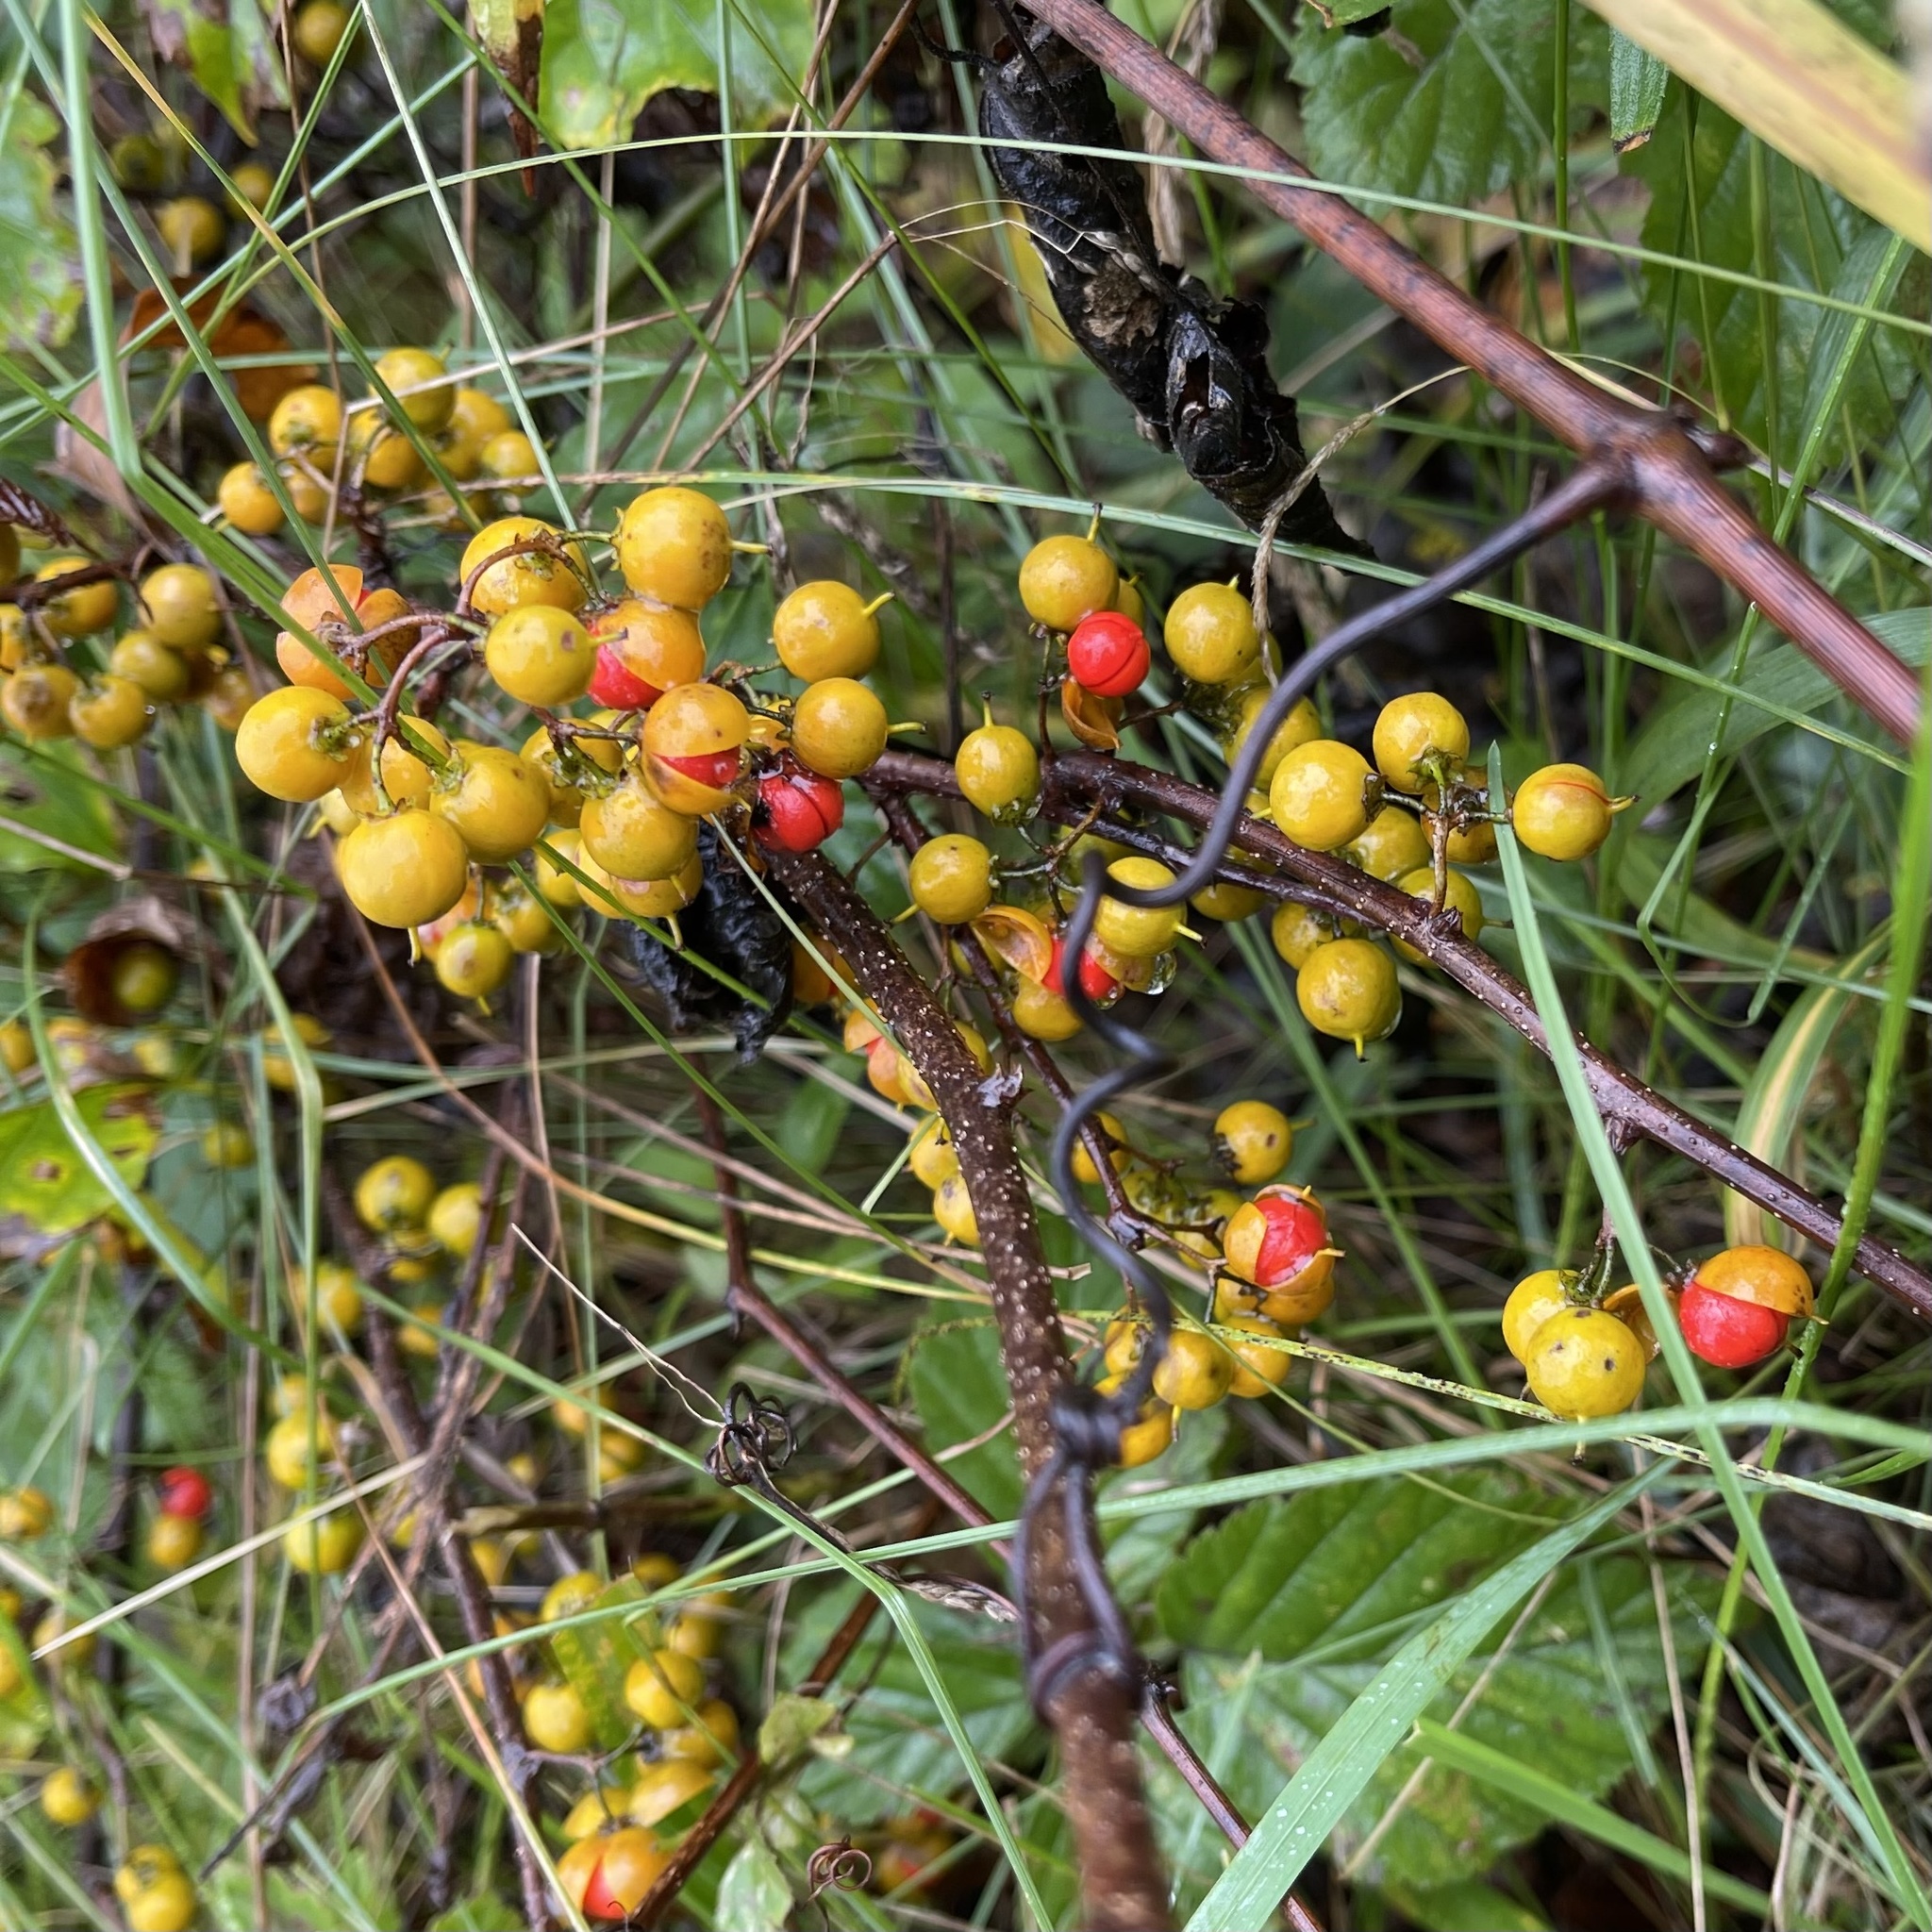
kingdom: Plantae
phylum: Tracheophyta
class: Magnoliopsida
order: Celastrales
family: Celastraceae
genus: Celastrus
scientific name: Celastrus orbiculatus
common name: Oriental bittersweet
